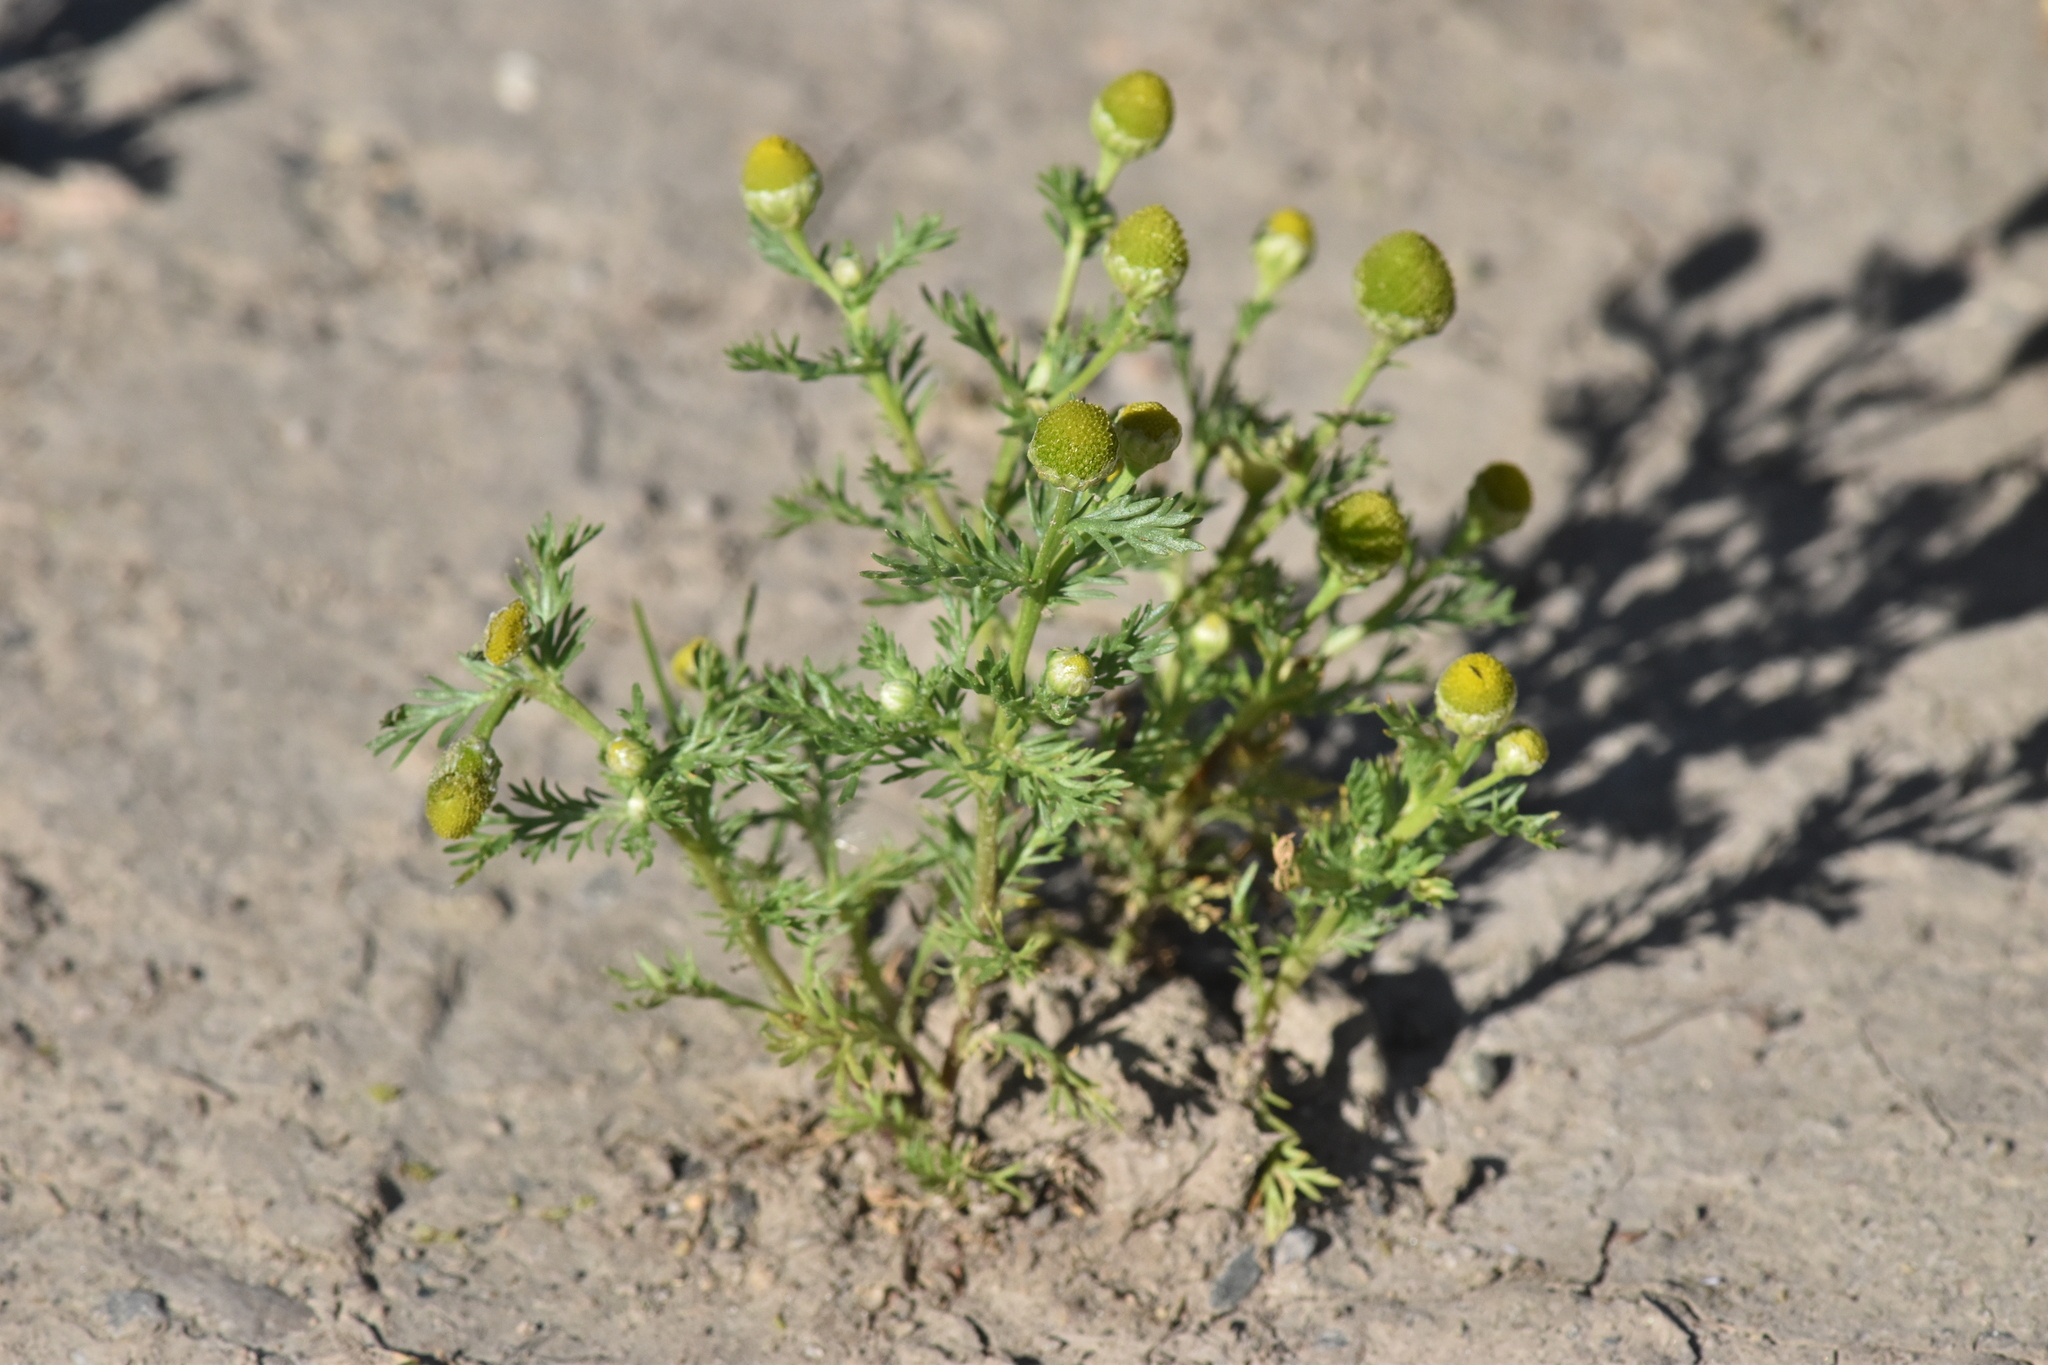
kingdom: Plantae
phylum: Tracheophyta
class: Magnoliopsida
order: Asterales
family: Asteraceae
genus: Matricaria
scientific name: Matricaria discoidea
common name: Disc mayweed
